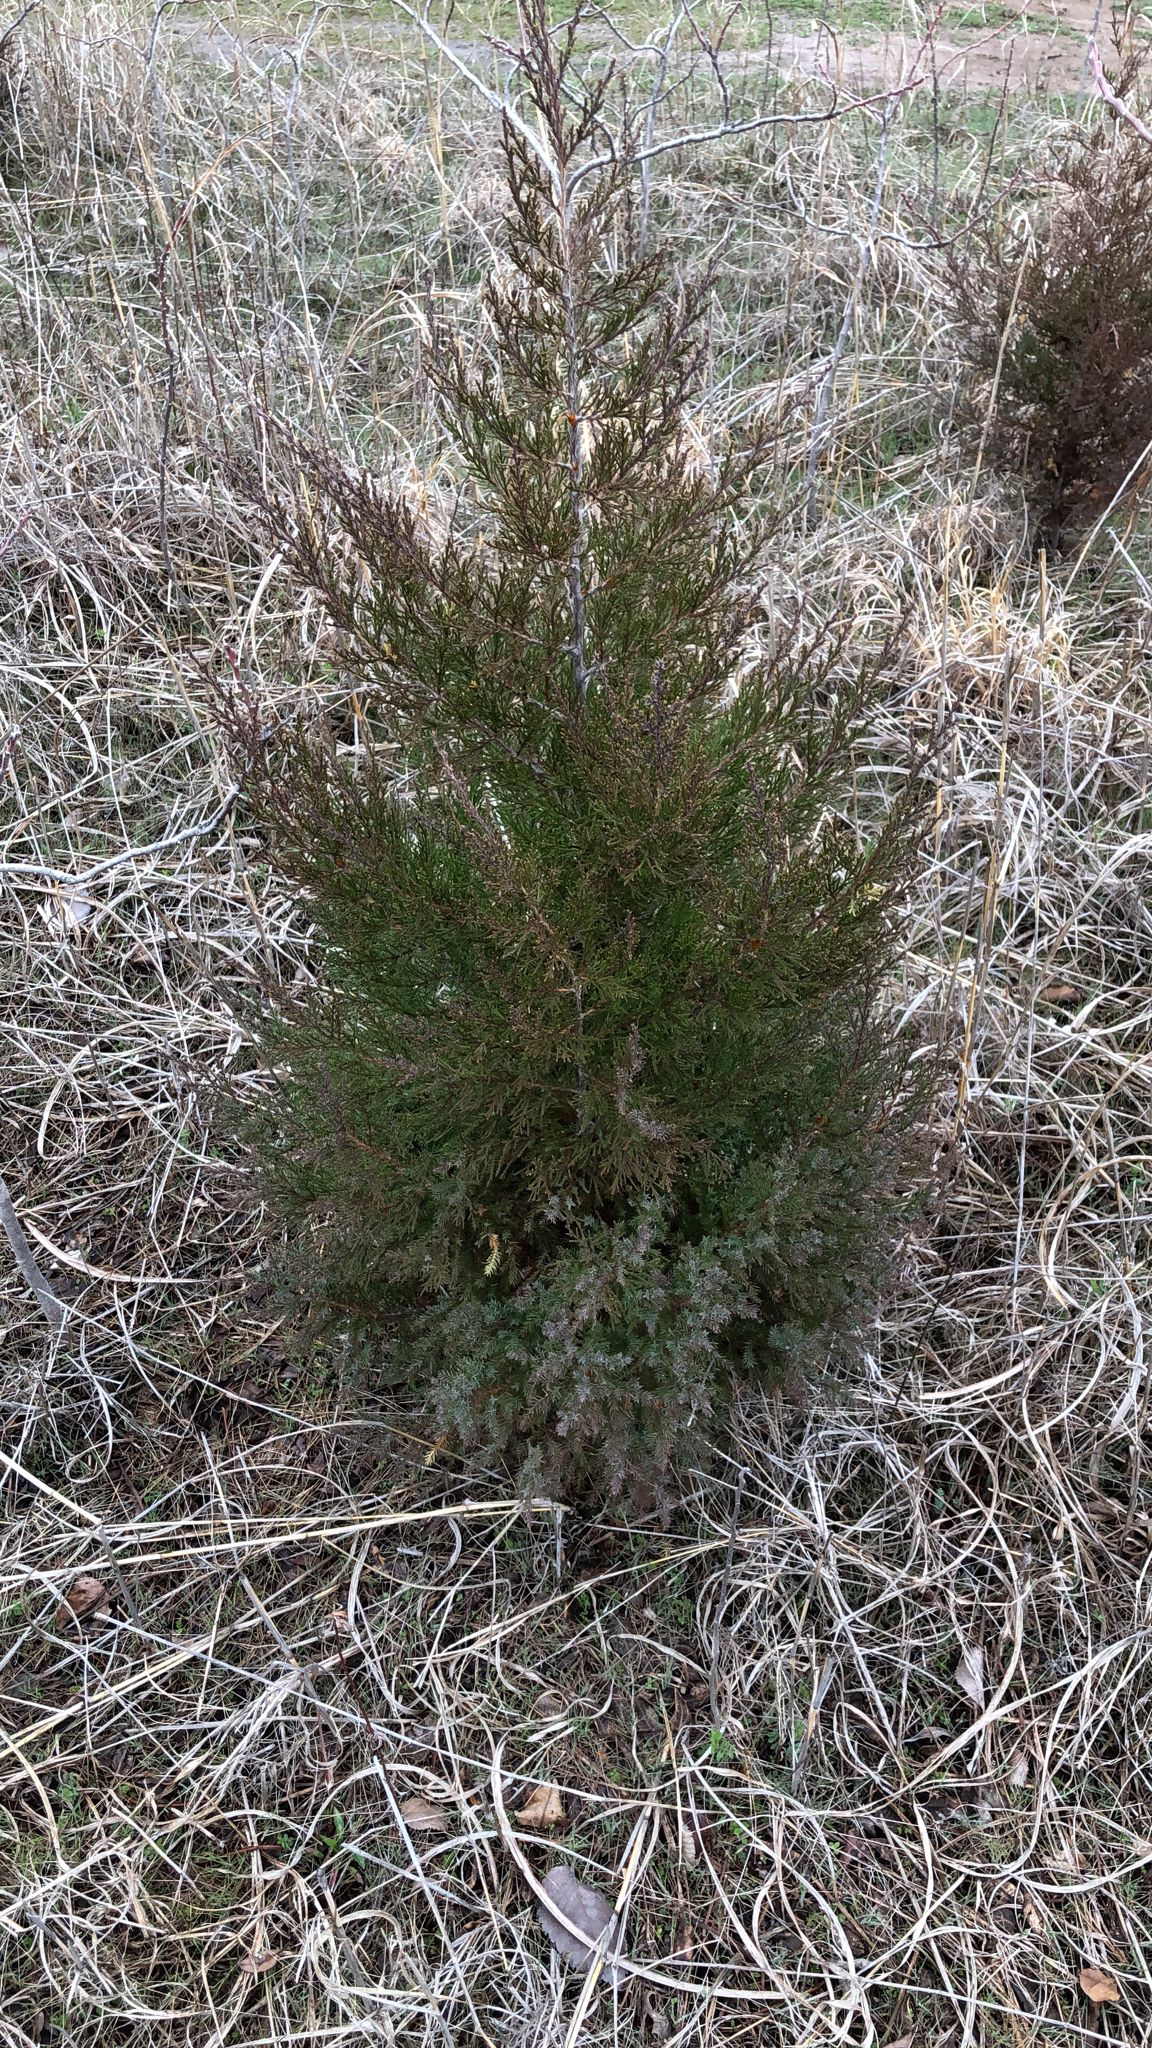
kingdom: Plantae
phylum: Tracheophyta
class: Pinopsida
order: Pinales
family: Cupressaceae
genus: Juniperus
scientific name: Juniperus virginiana
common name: Red juniper
